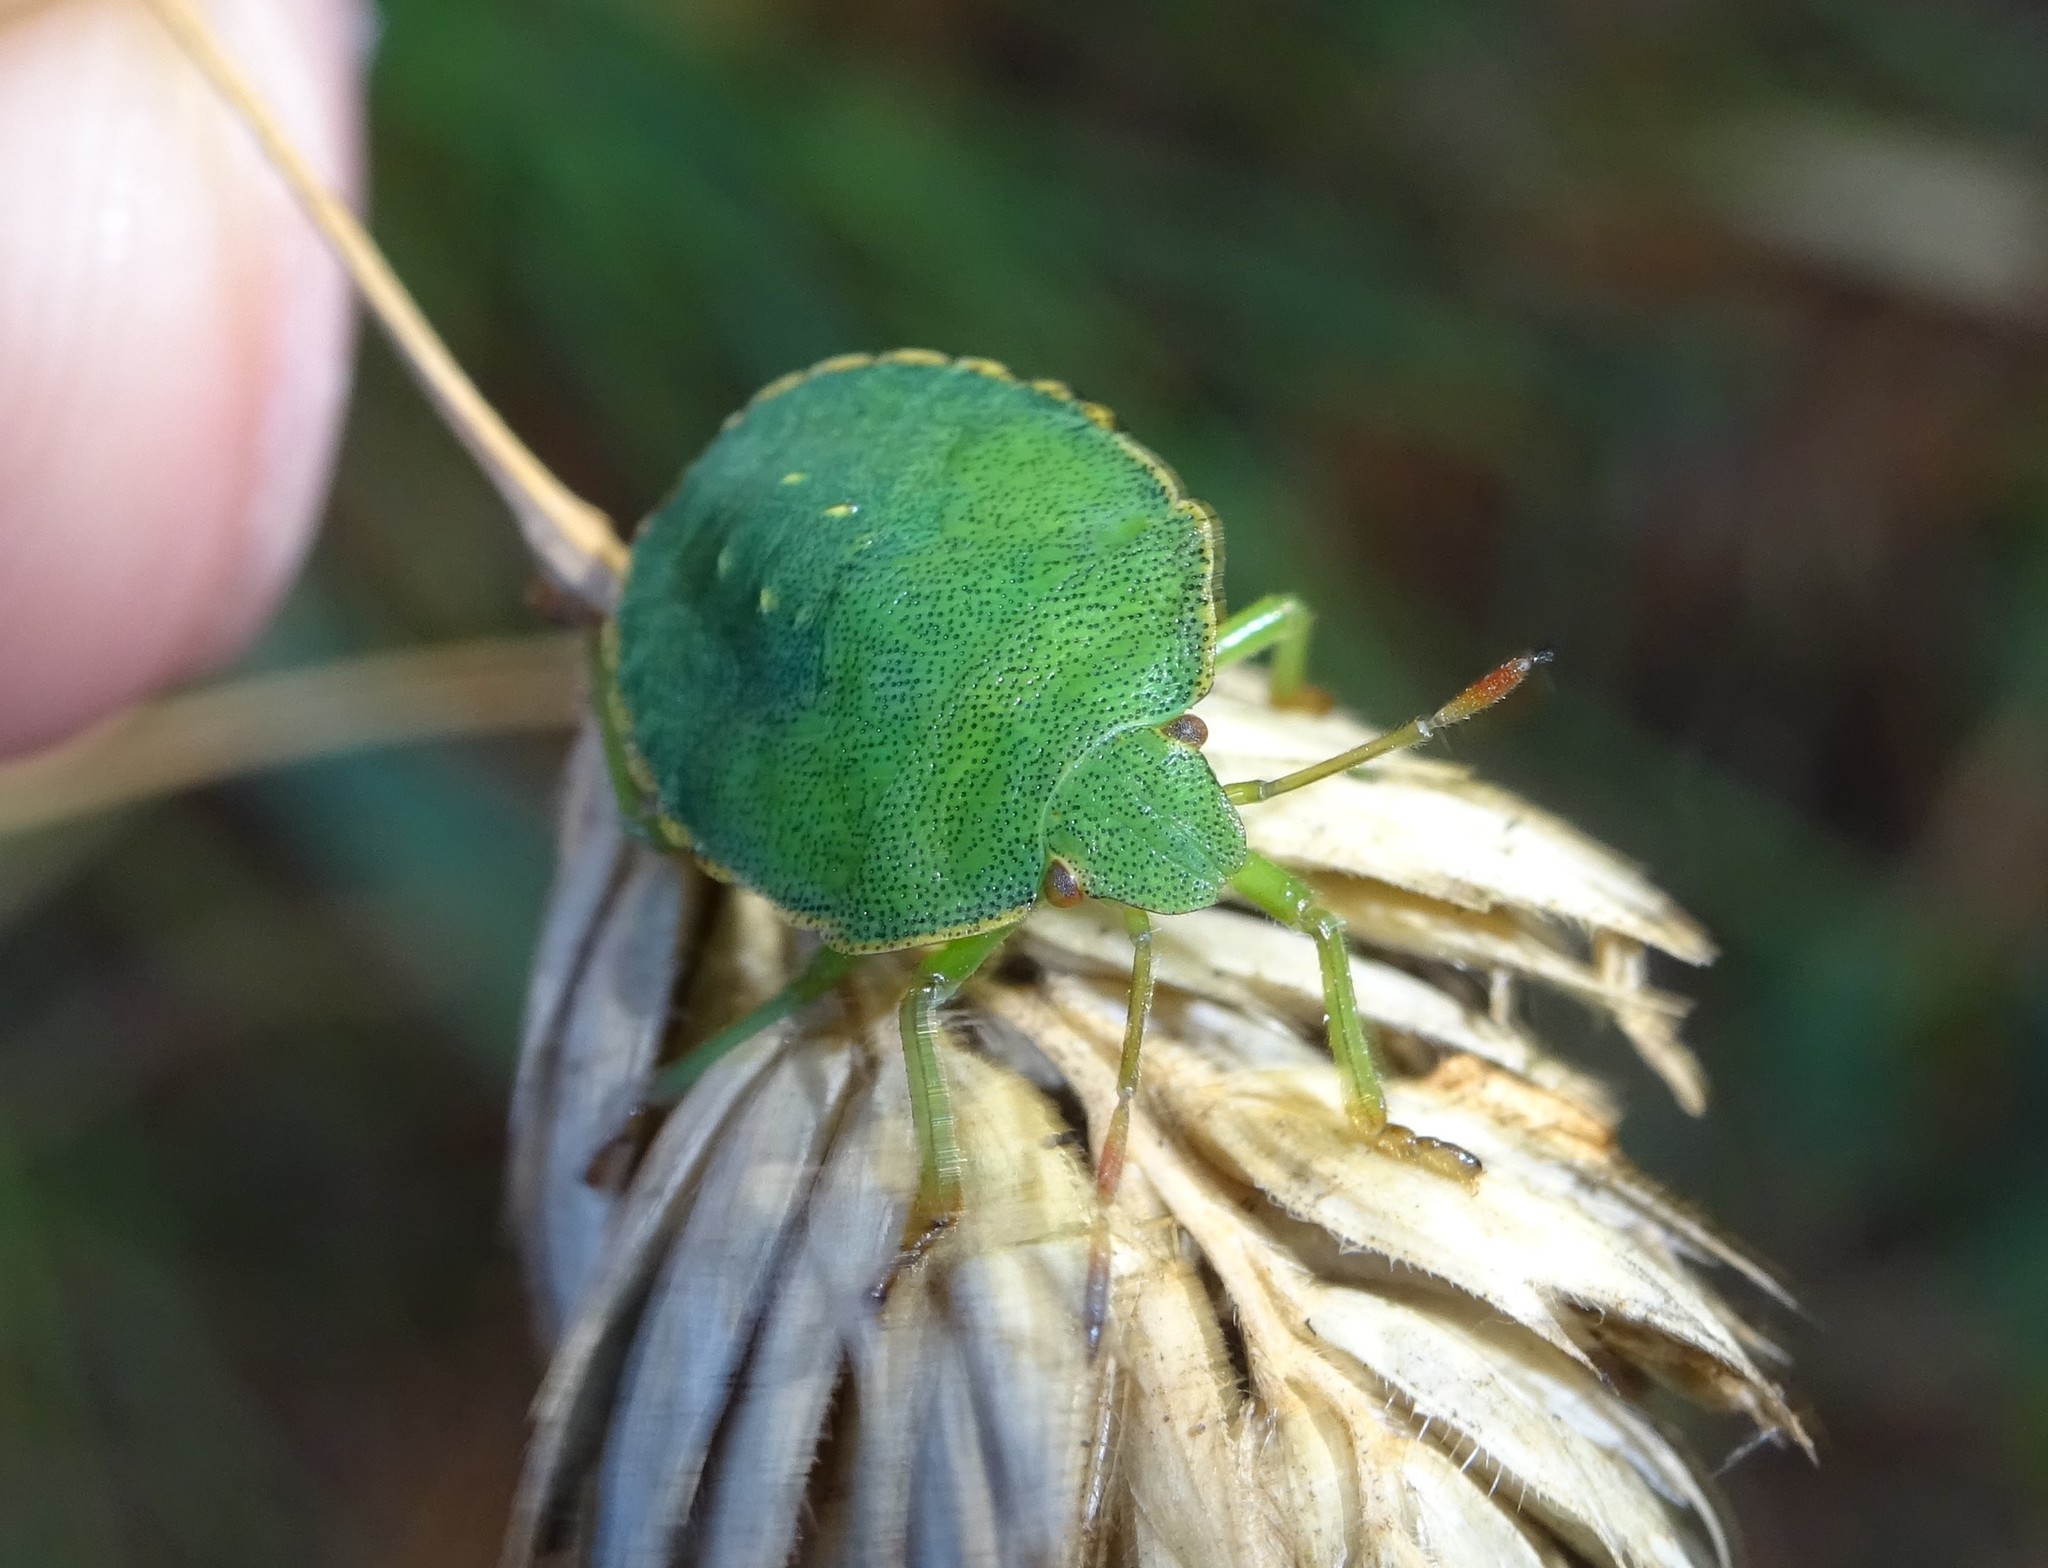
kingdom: Animalia
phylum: Arthropoda
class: Insecta
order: Hemiptera
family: Pentatomidae
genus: Palomena
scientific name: Palomena prasina
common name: Green shieldbug
